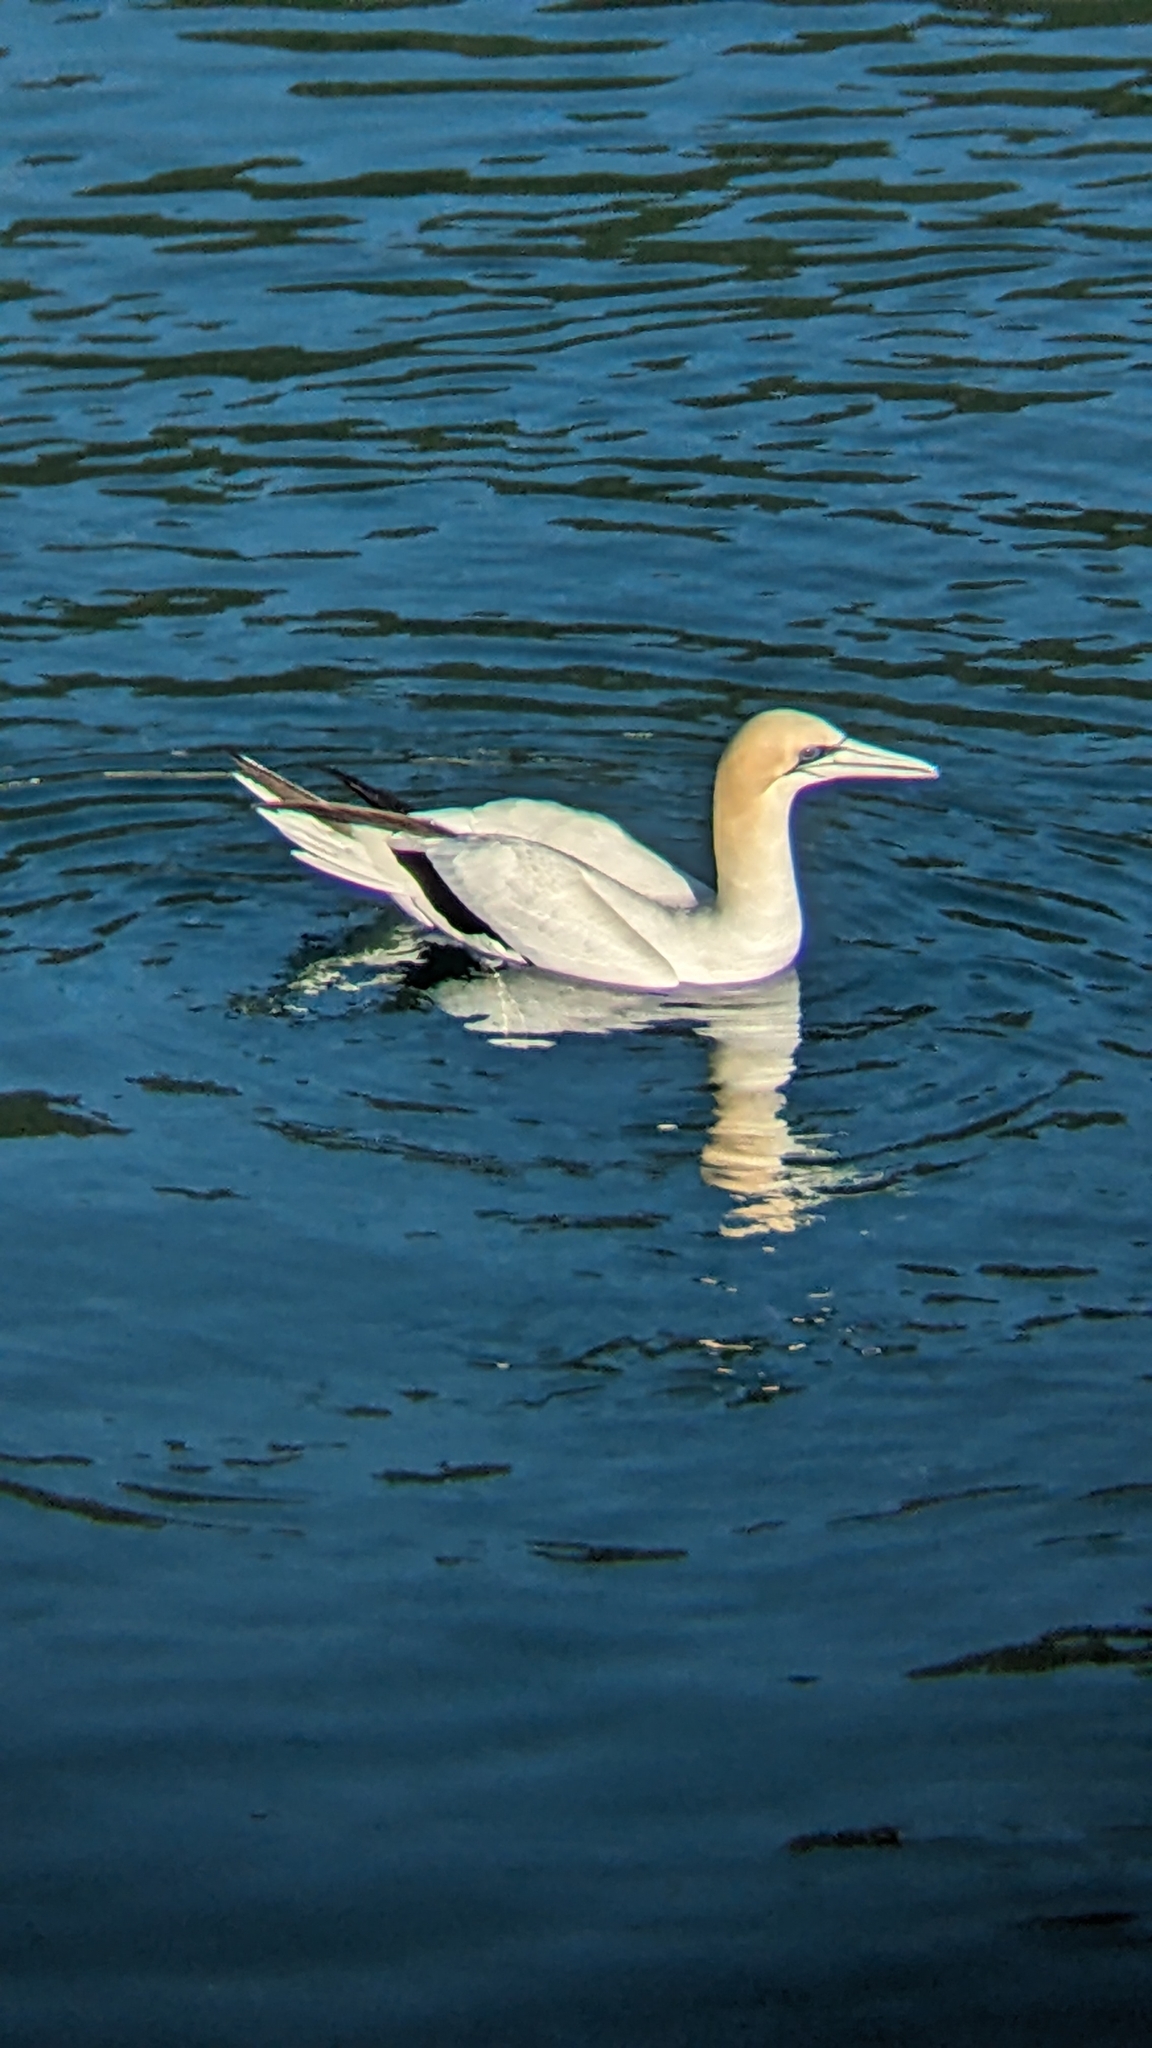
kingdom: Animalia
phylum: Chordata
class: Aves
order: Suliformes
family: Sulidae
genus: Morus
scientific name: Morus serrator
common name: Australasian gannet
